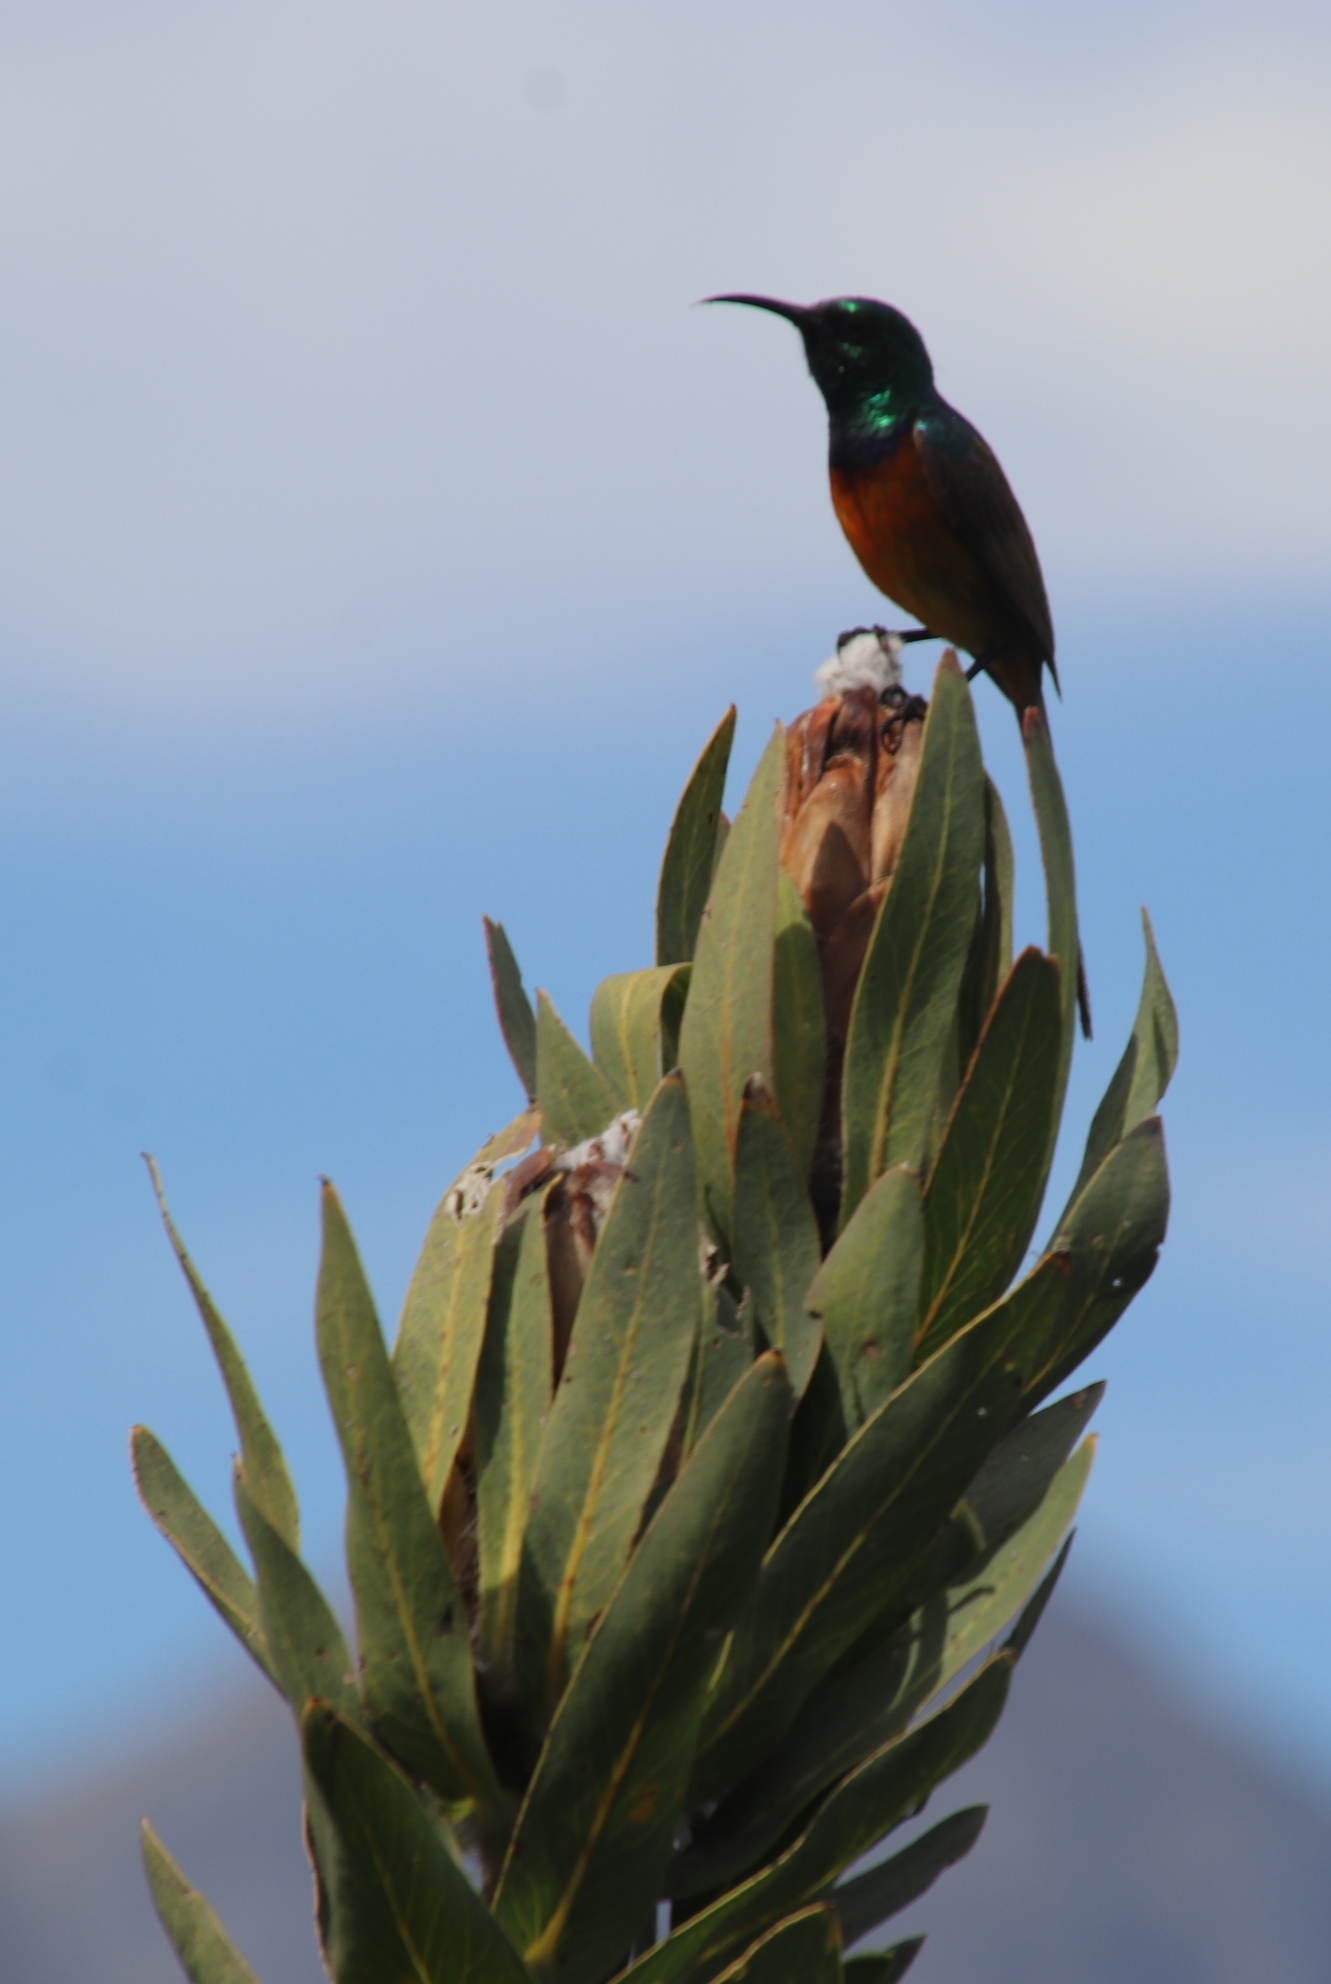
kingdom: Animalia
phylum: Chordata
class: Aves
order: Passeriformes
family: Nectariniidae
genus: Anthobaphes
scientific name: Anthobaphes violacea
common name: Orange-breasted sunbird
